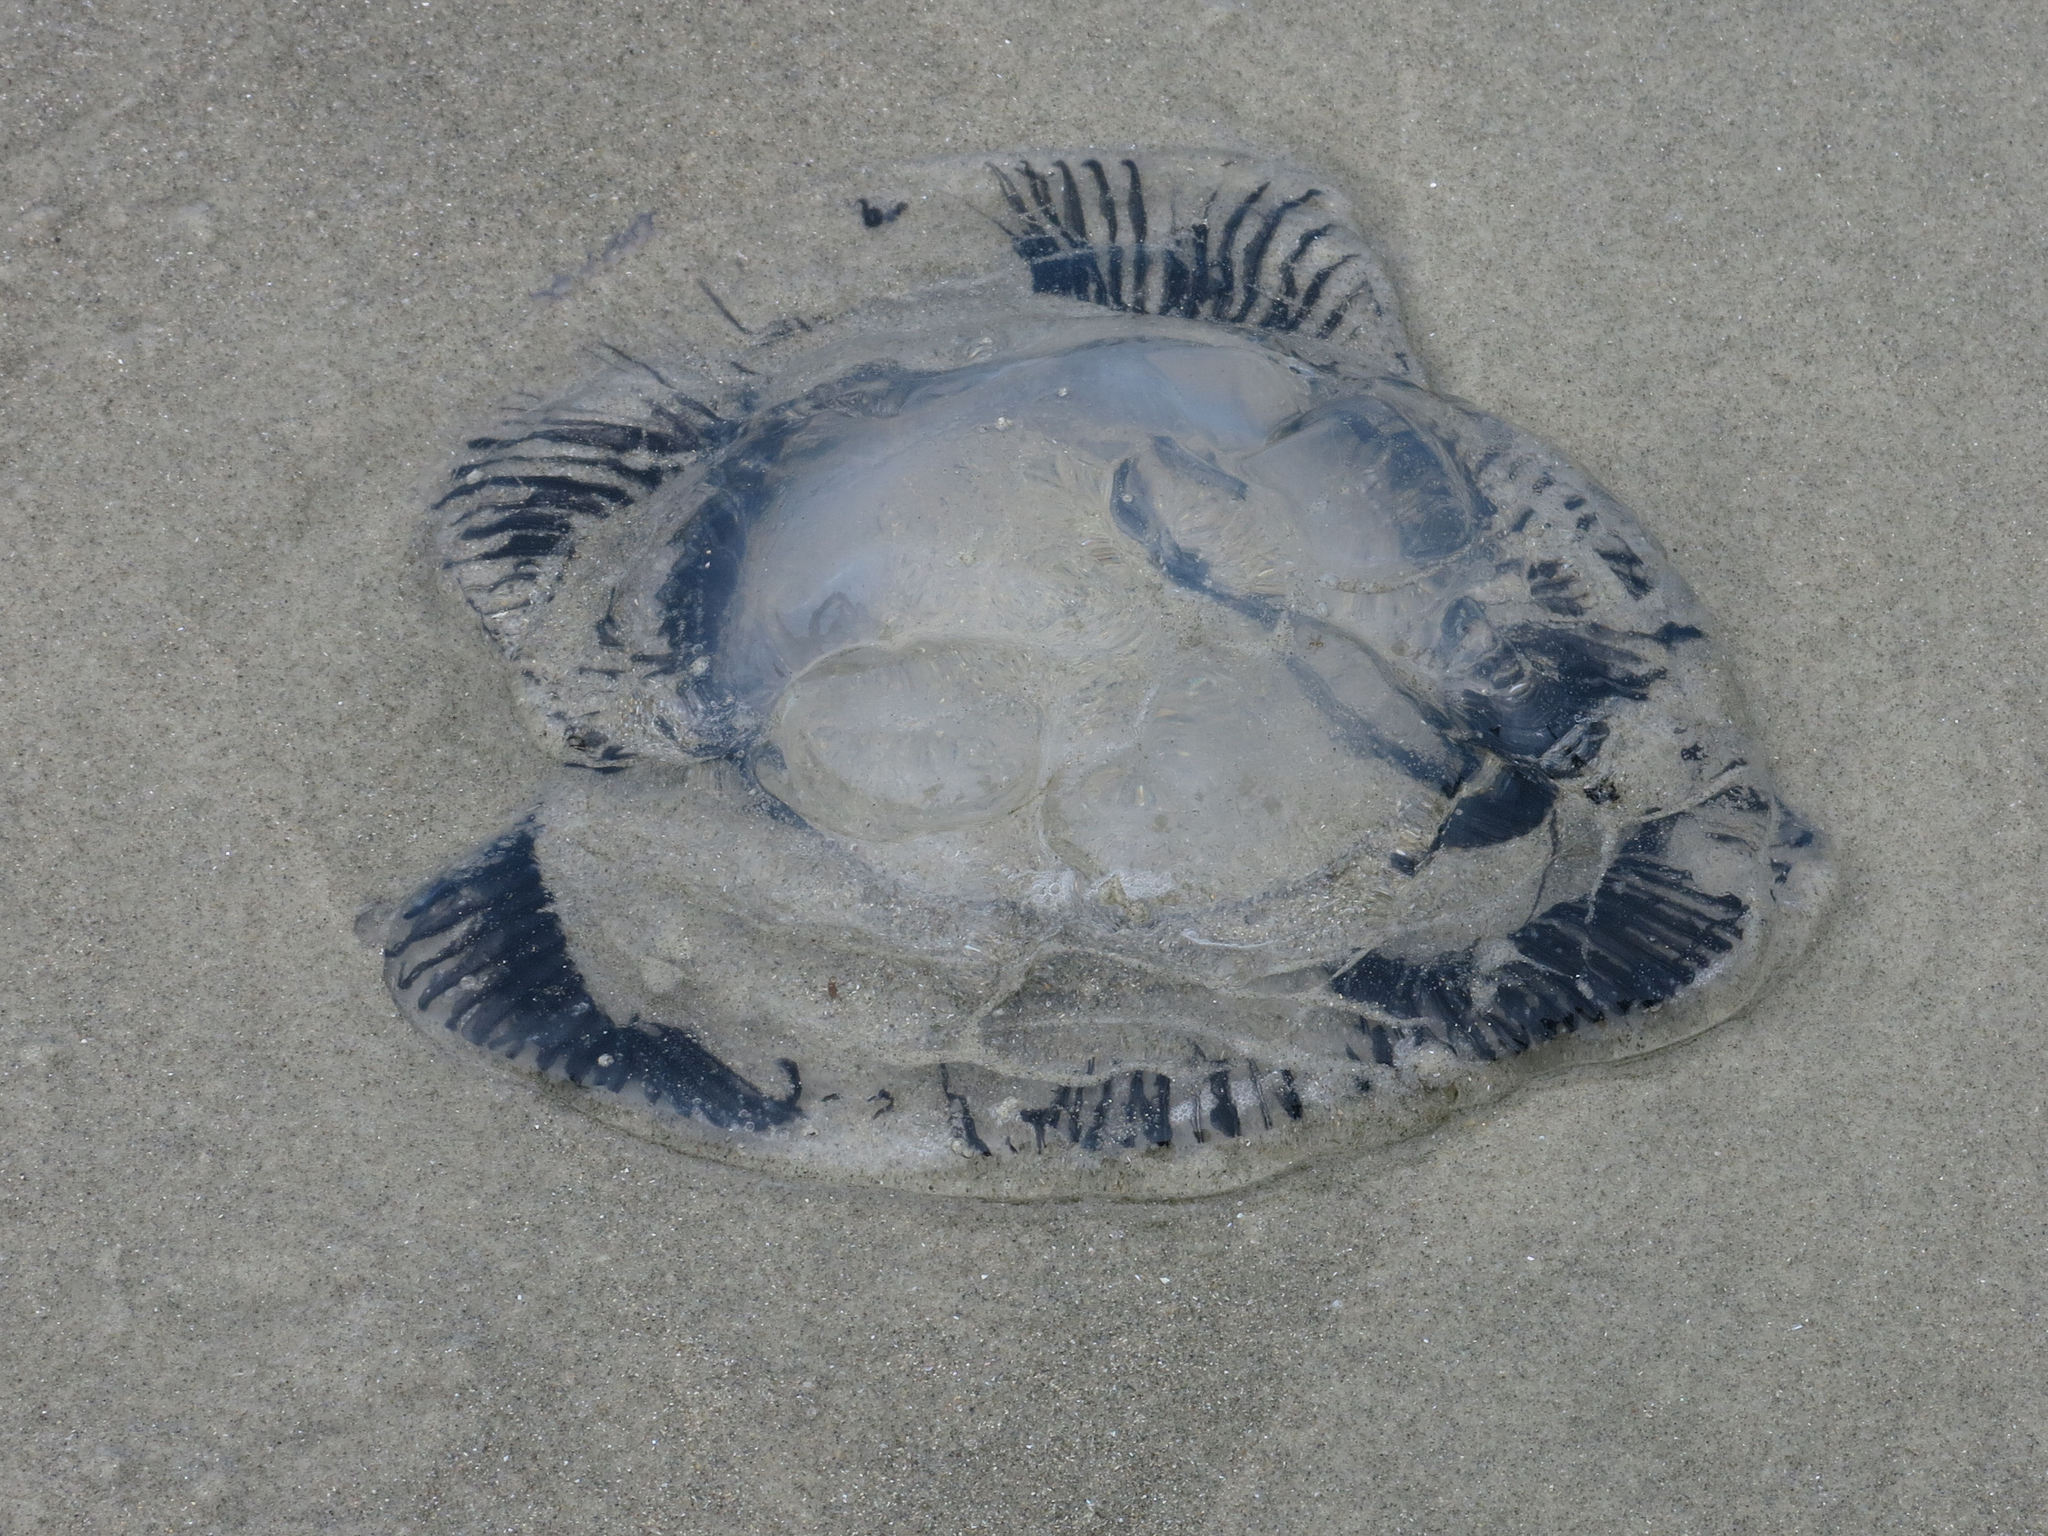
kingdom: Animalia
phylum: Cnidaria
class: Hydrozoa
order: Leptothecata
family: Aequoreidae
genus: Aequorea
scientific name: Aequorea forskalea
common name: Many-ribbed jellyfish
